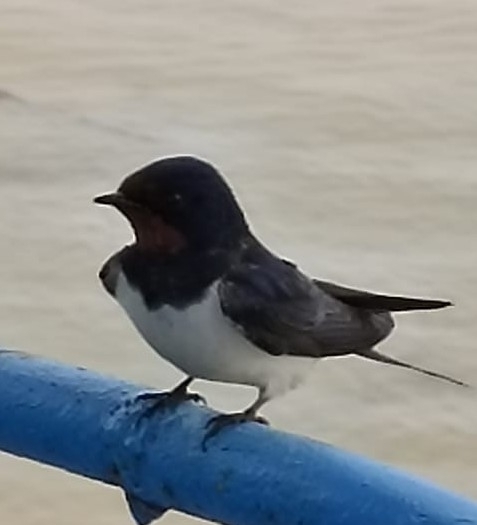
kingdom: Animalia
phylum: Chordata
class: Aves
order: Passeriformes
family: Hirundinidae
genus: Hirundo
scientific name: Hirundo rustica
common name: Barn swallow
